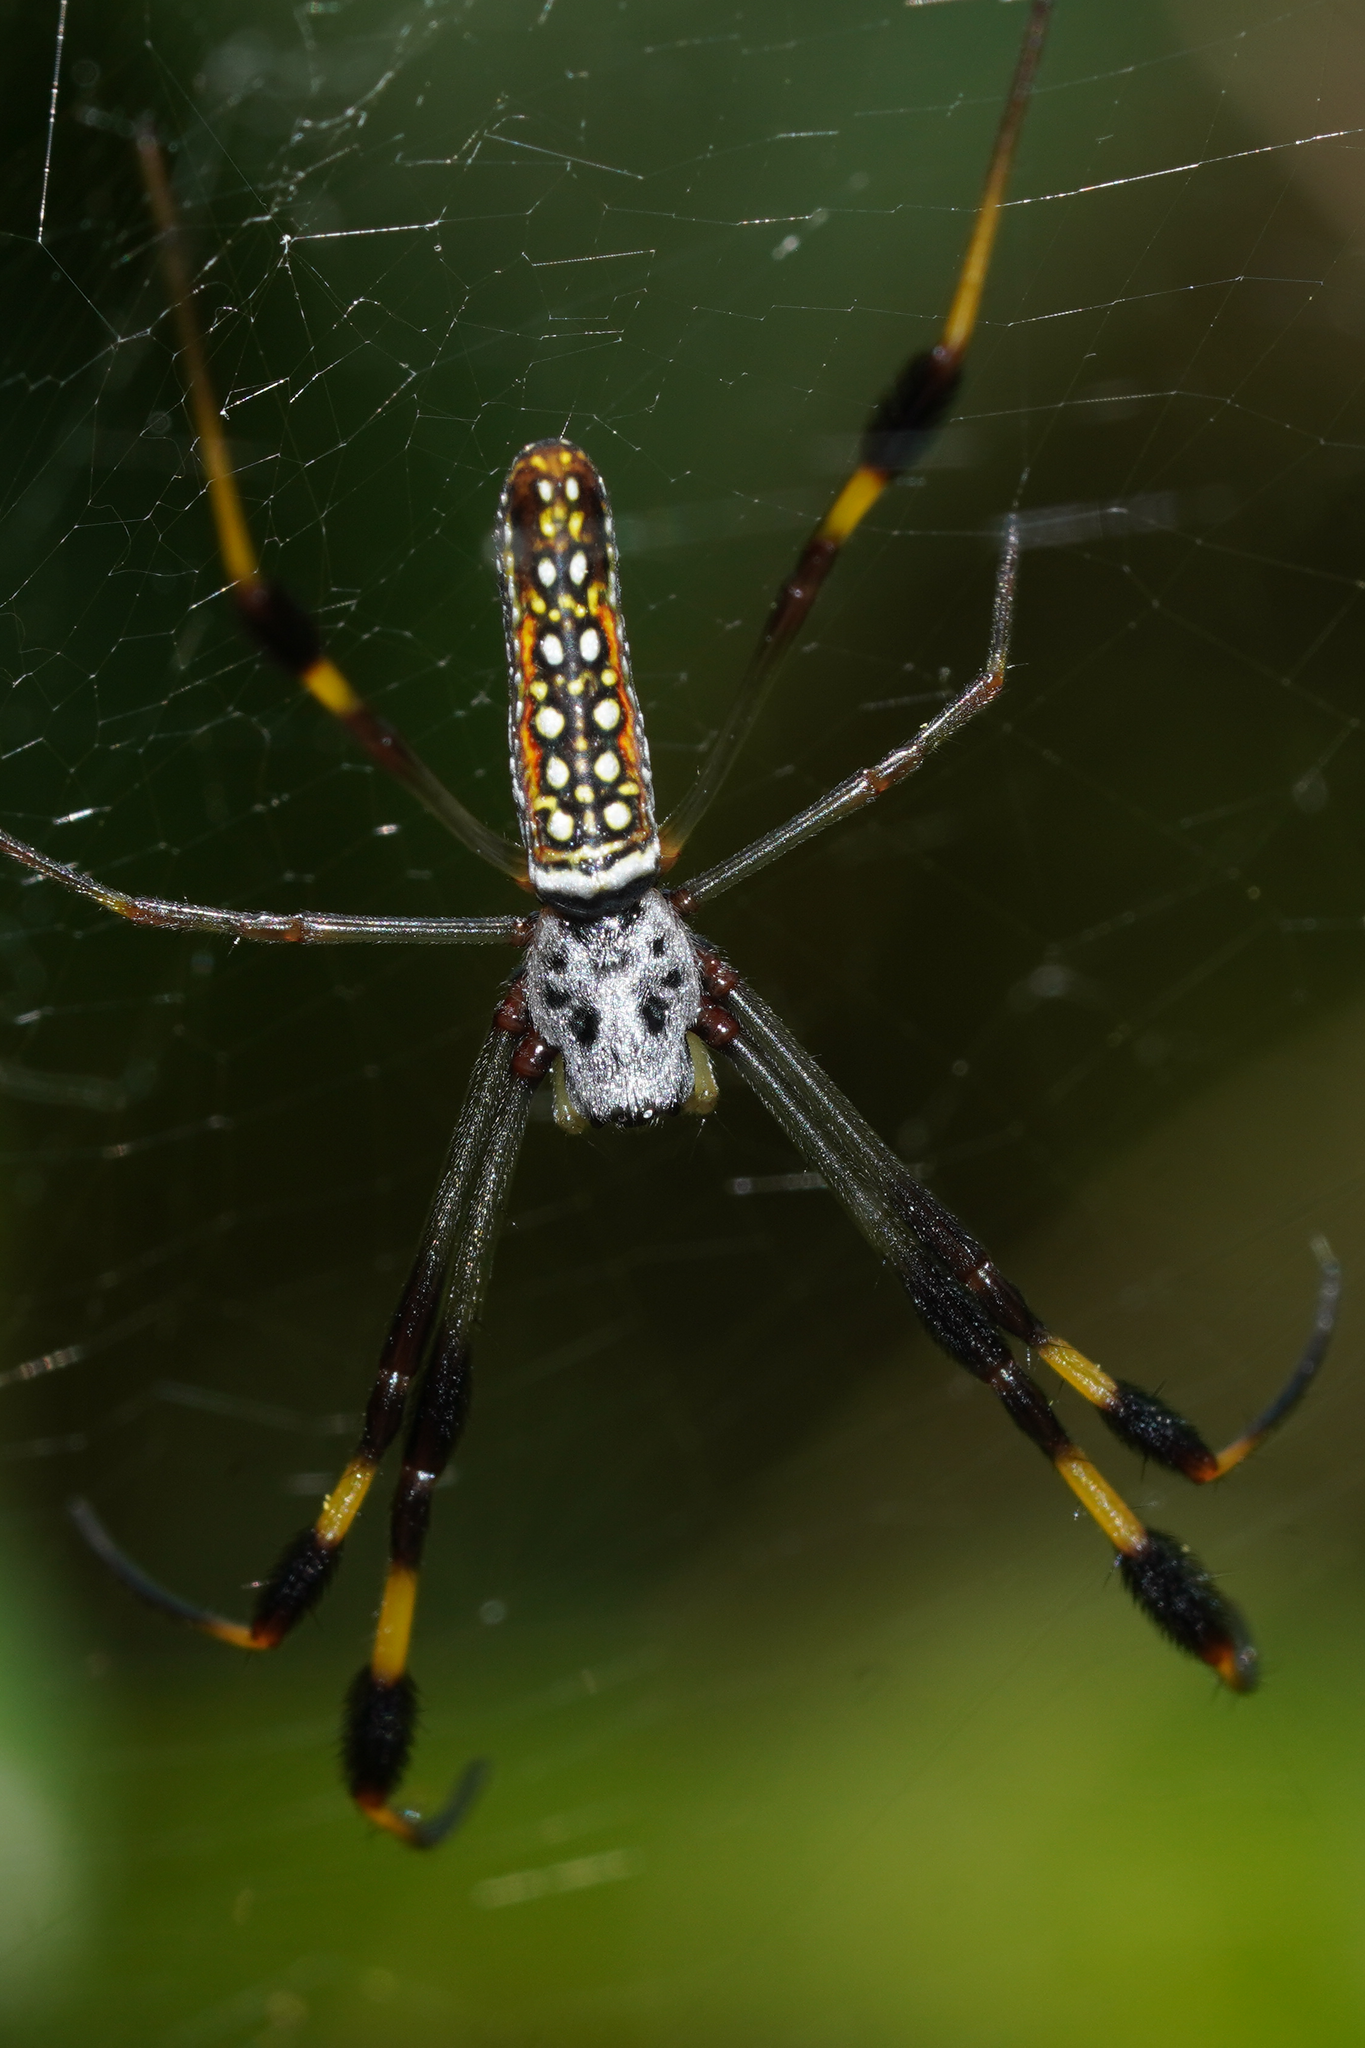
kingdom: Animalia
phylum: Arthropoda
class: Arachnida
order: Araneae
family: Araneidae
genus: Trichonephila
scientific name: Trichonephila clavipes
